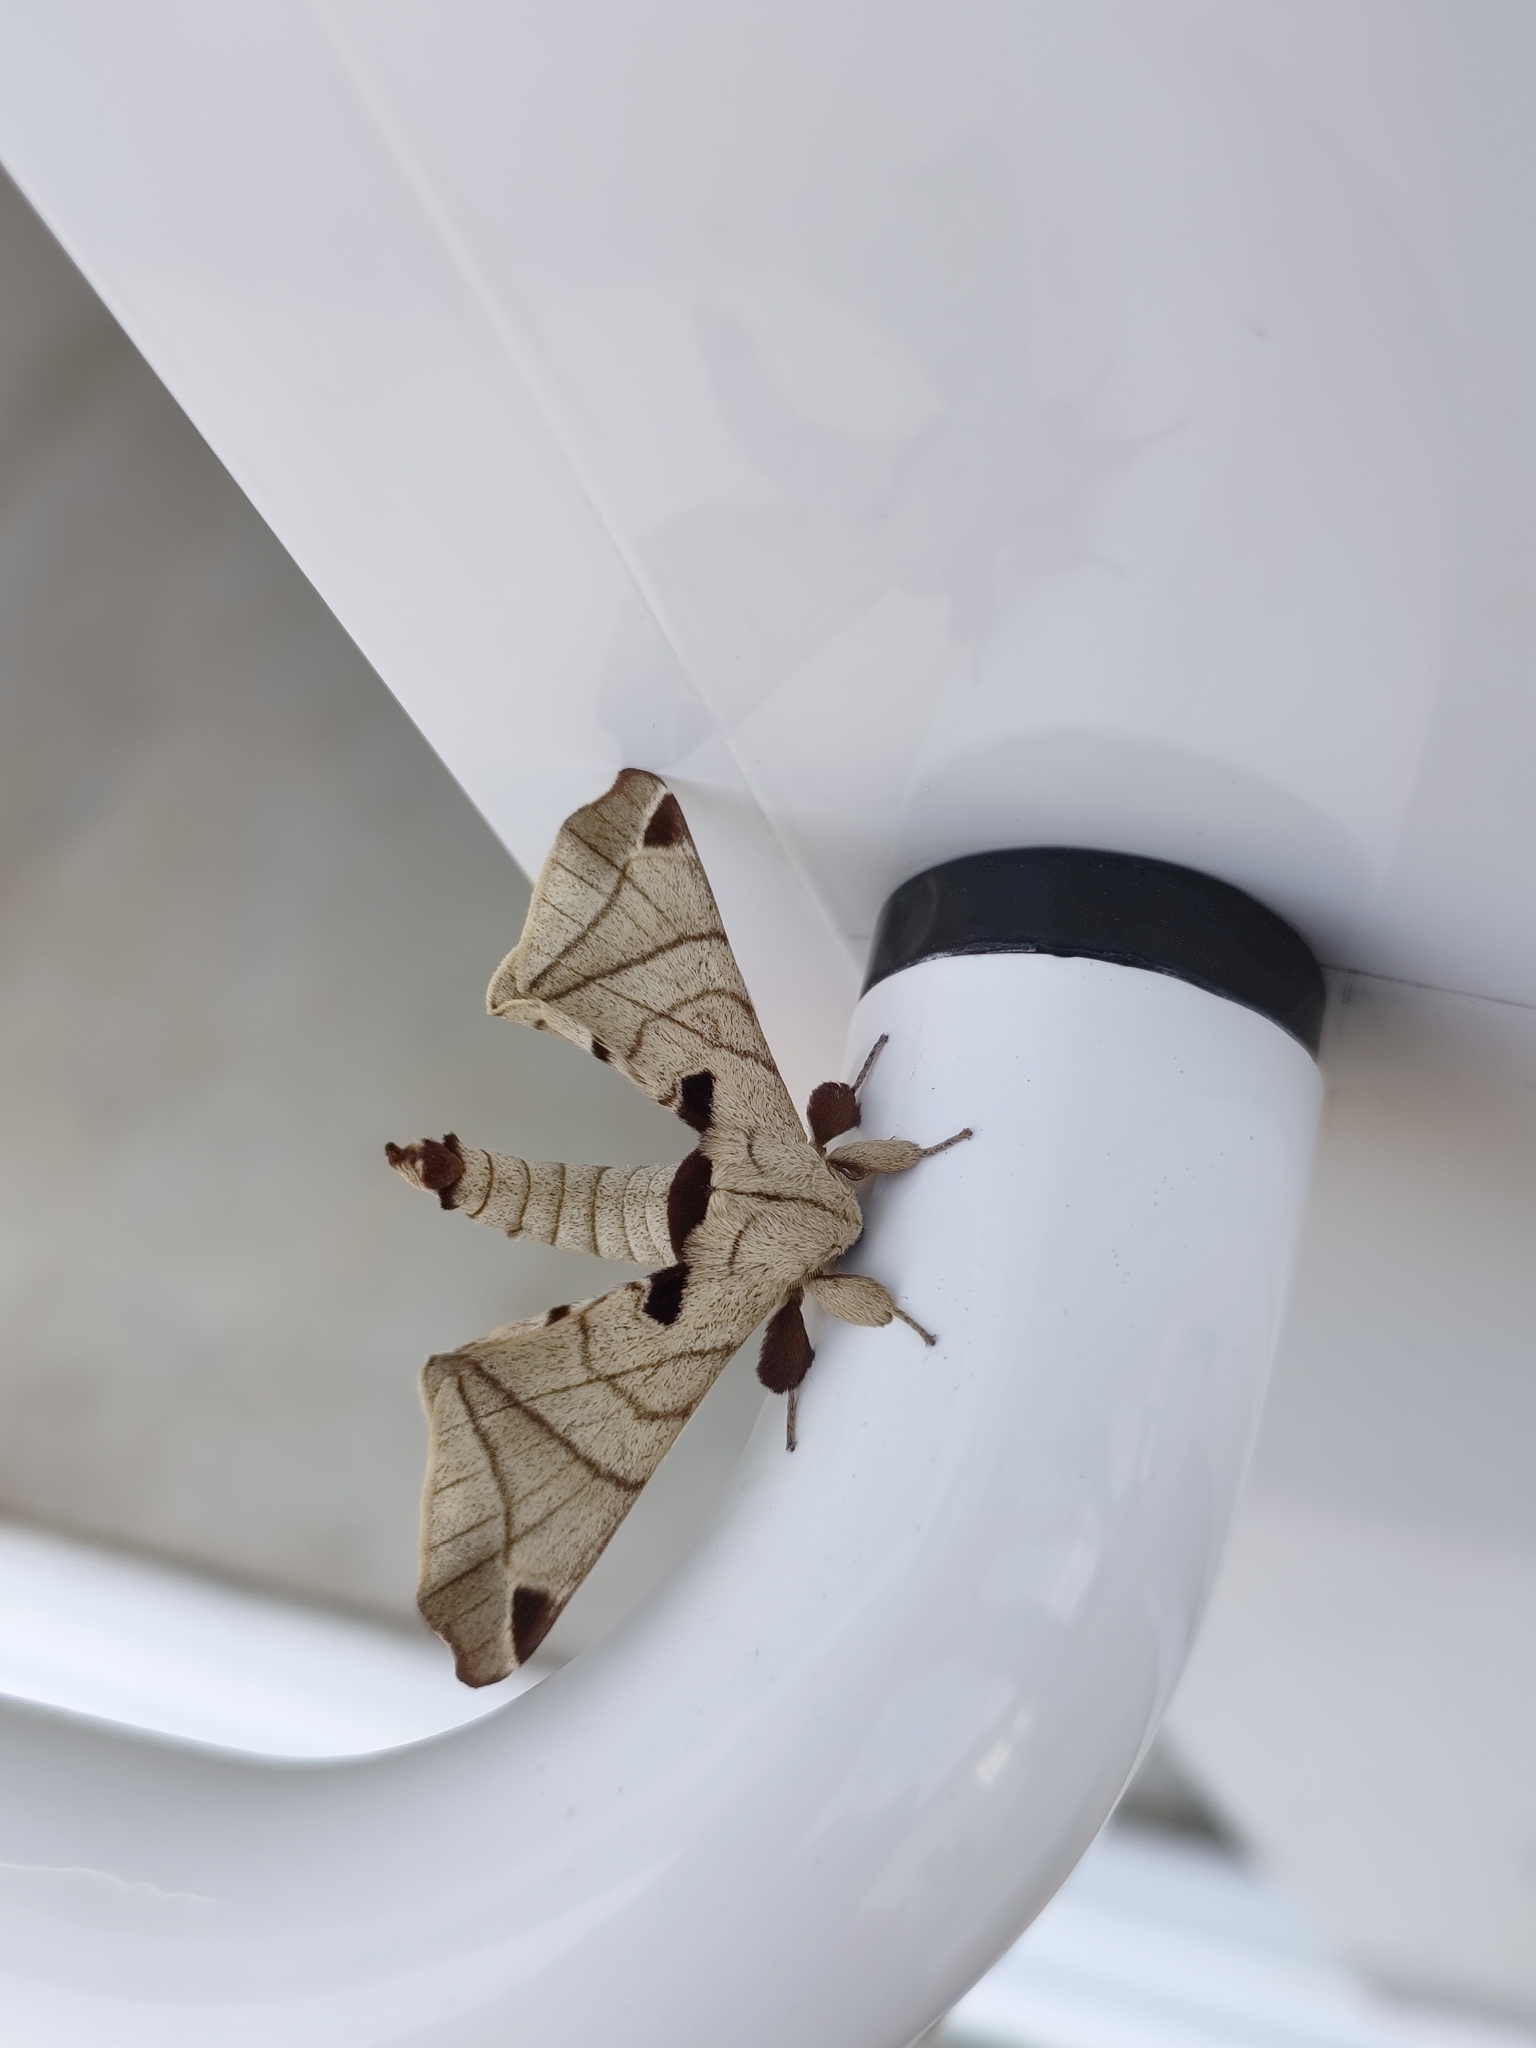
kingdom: Animalia
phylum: Arthropoda
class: Insecta
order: Lepidoptera
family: Apatelodidae
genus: Hygrochroa
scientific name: Hygrochroa Apatelodes torrefacta
